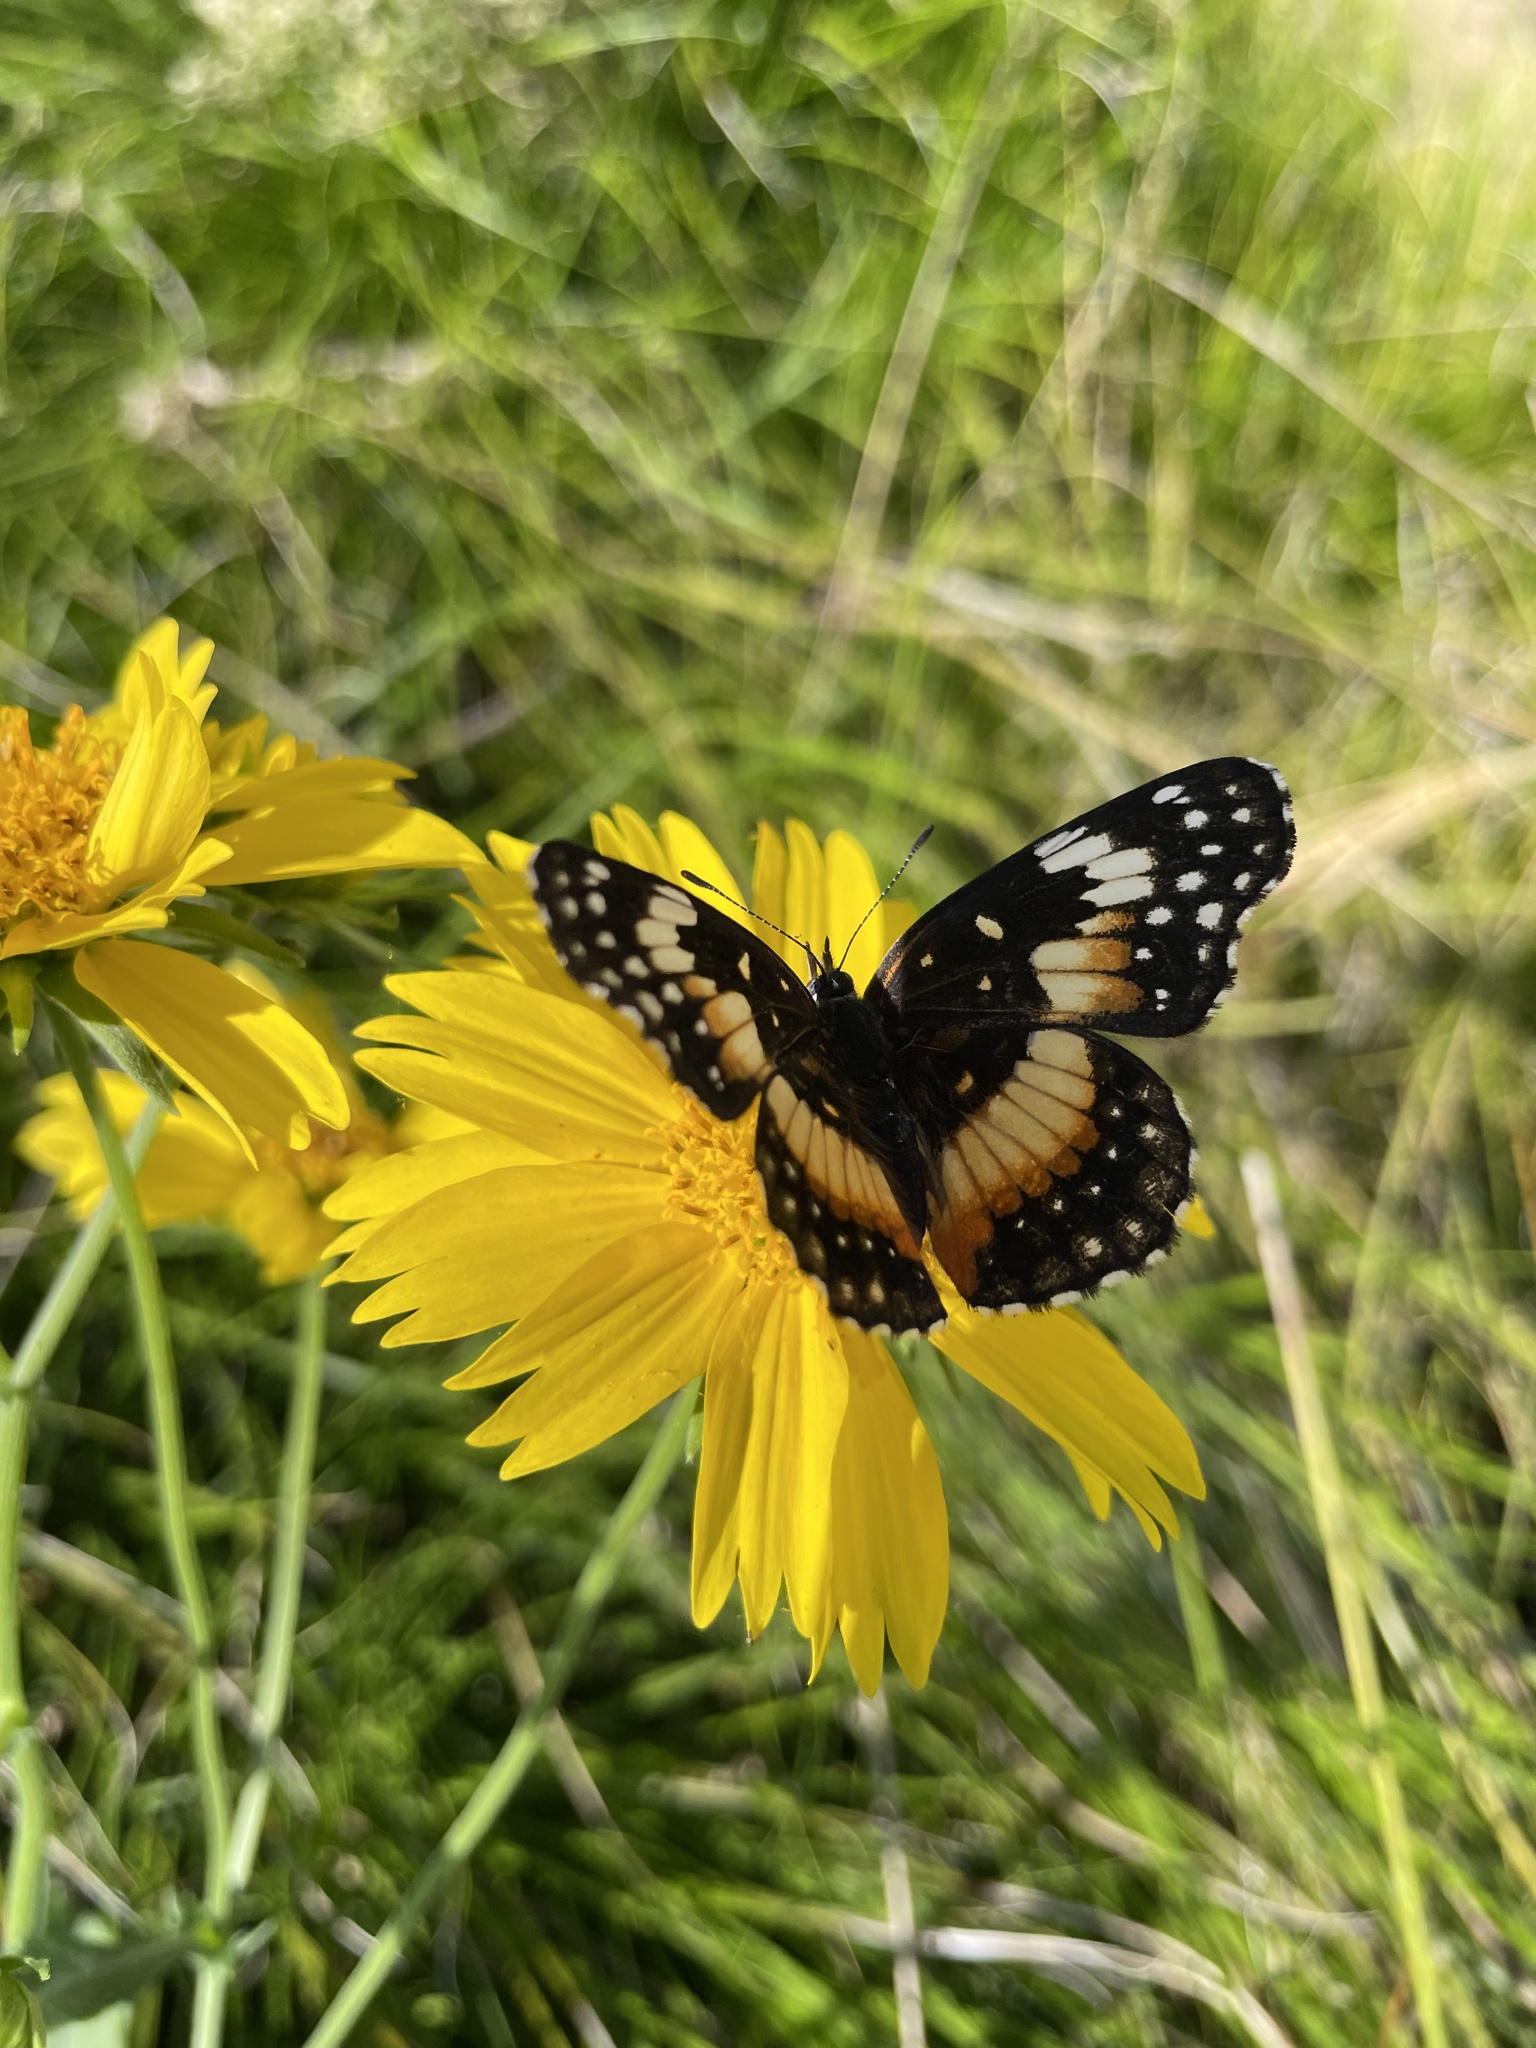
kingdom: Animalia
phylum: Arthropoda
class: Insecta
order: Lepidoptera
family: Nymphalidae
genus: Chlosyne
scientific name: Chlosyne lacinia
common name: Bordered patch
